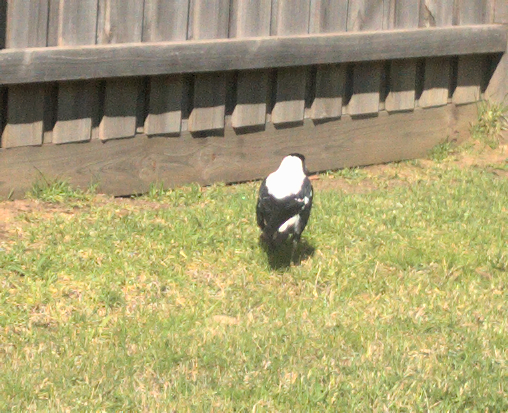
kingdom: Animalia
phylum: Chordata
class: Aves
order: Passeriformes
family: Cracticidae
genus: Gymnorhina
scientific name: Gymnorhina tibicen
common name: Australian magpie
